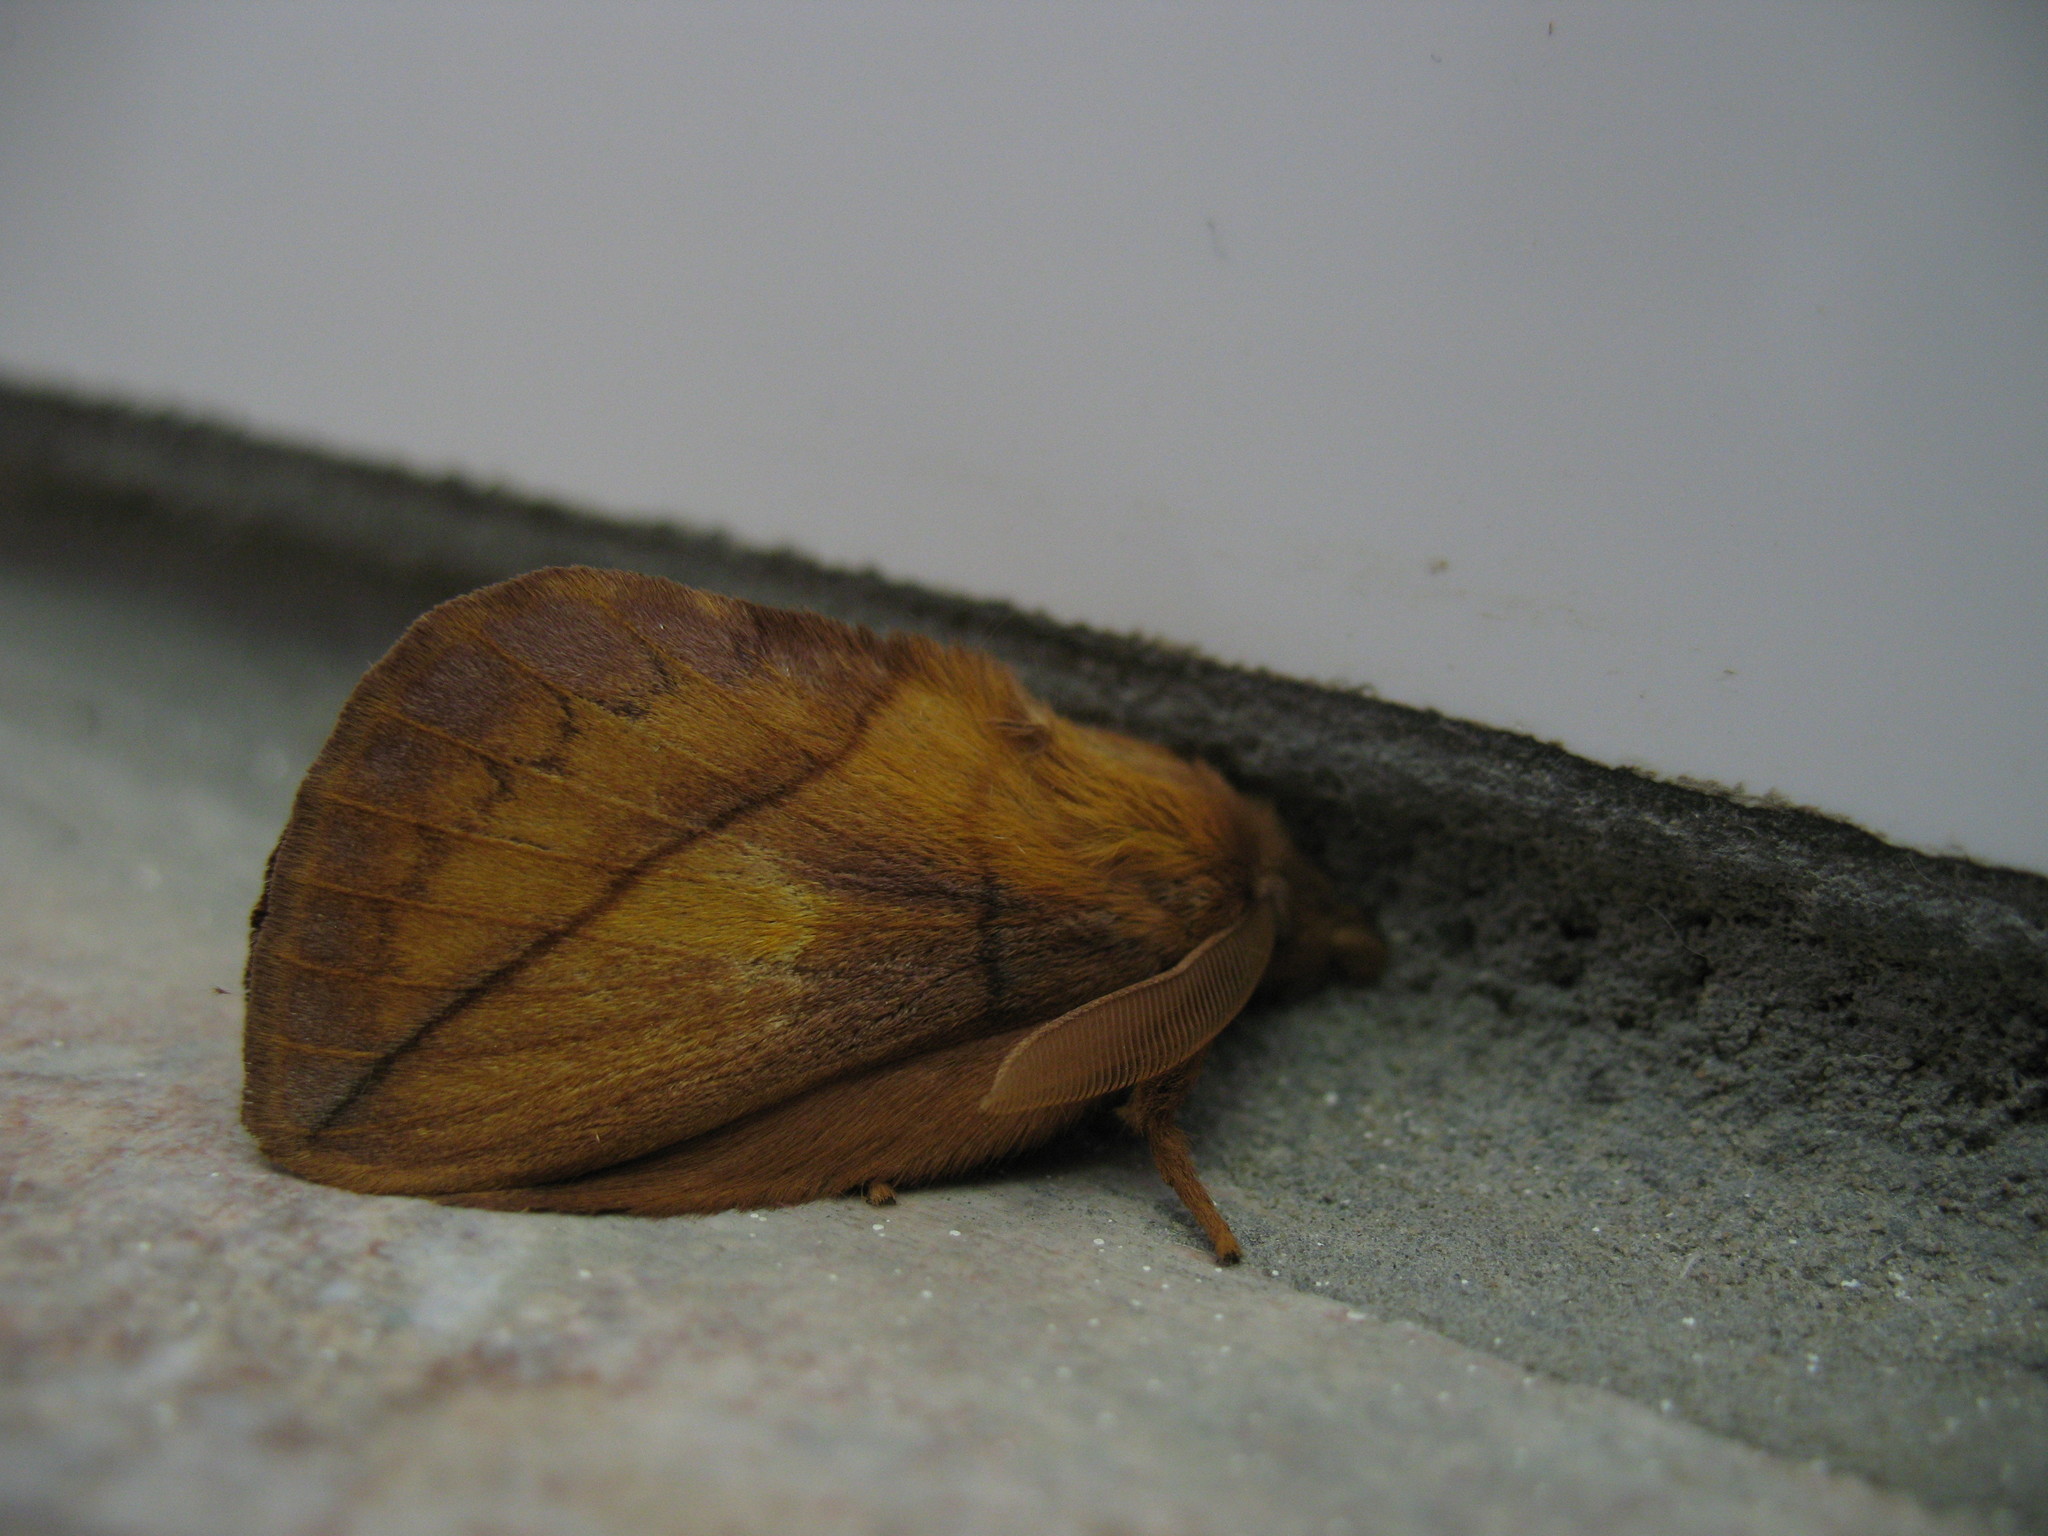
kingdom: Animalia
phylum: Arthropoda
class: Insecta
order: Lepidoptera
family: Lasiocampidae
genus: Euthrix
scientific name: Euthrix potatoria
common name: Drinker
